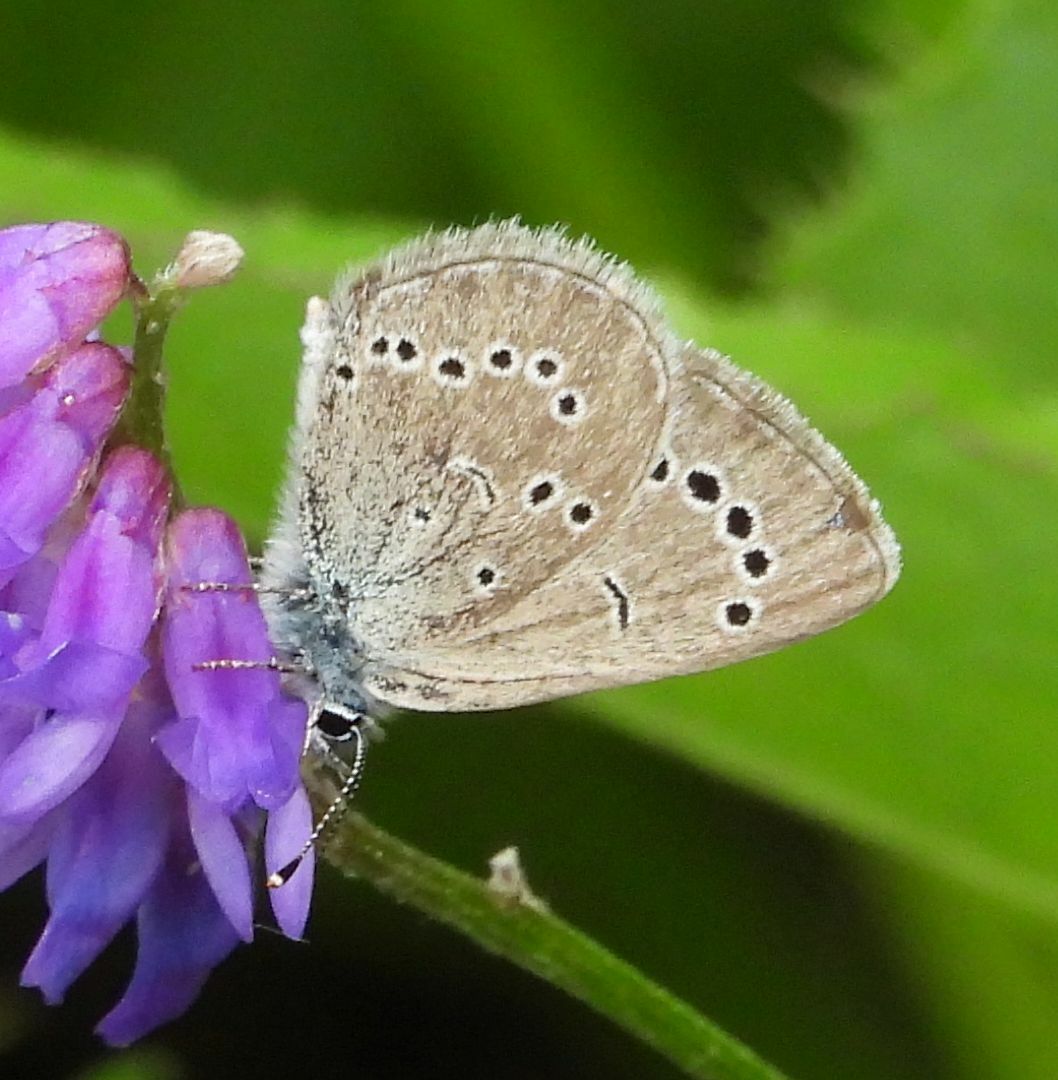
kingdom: Animalia
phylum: Arthropoda
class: Insecta
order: Lepidoptera
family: Lycaenidae
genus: Glaucopsyche
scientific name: Glaucopsyche lygdamus
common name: Silvery blue
